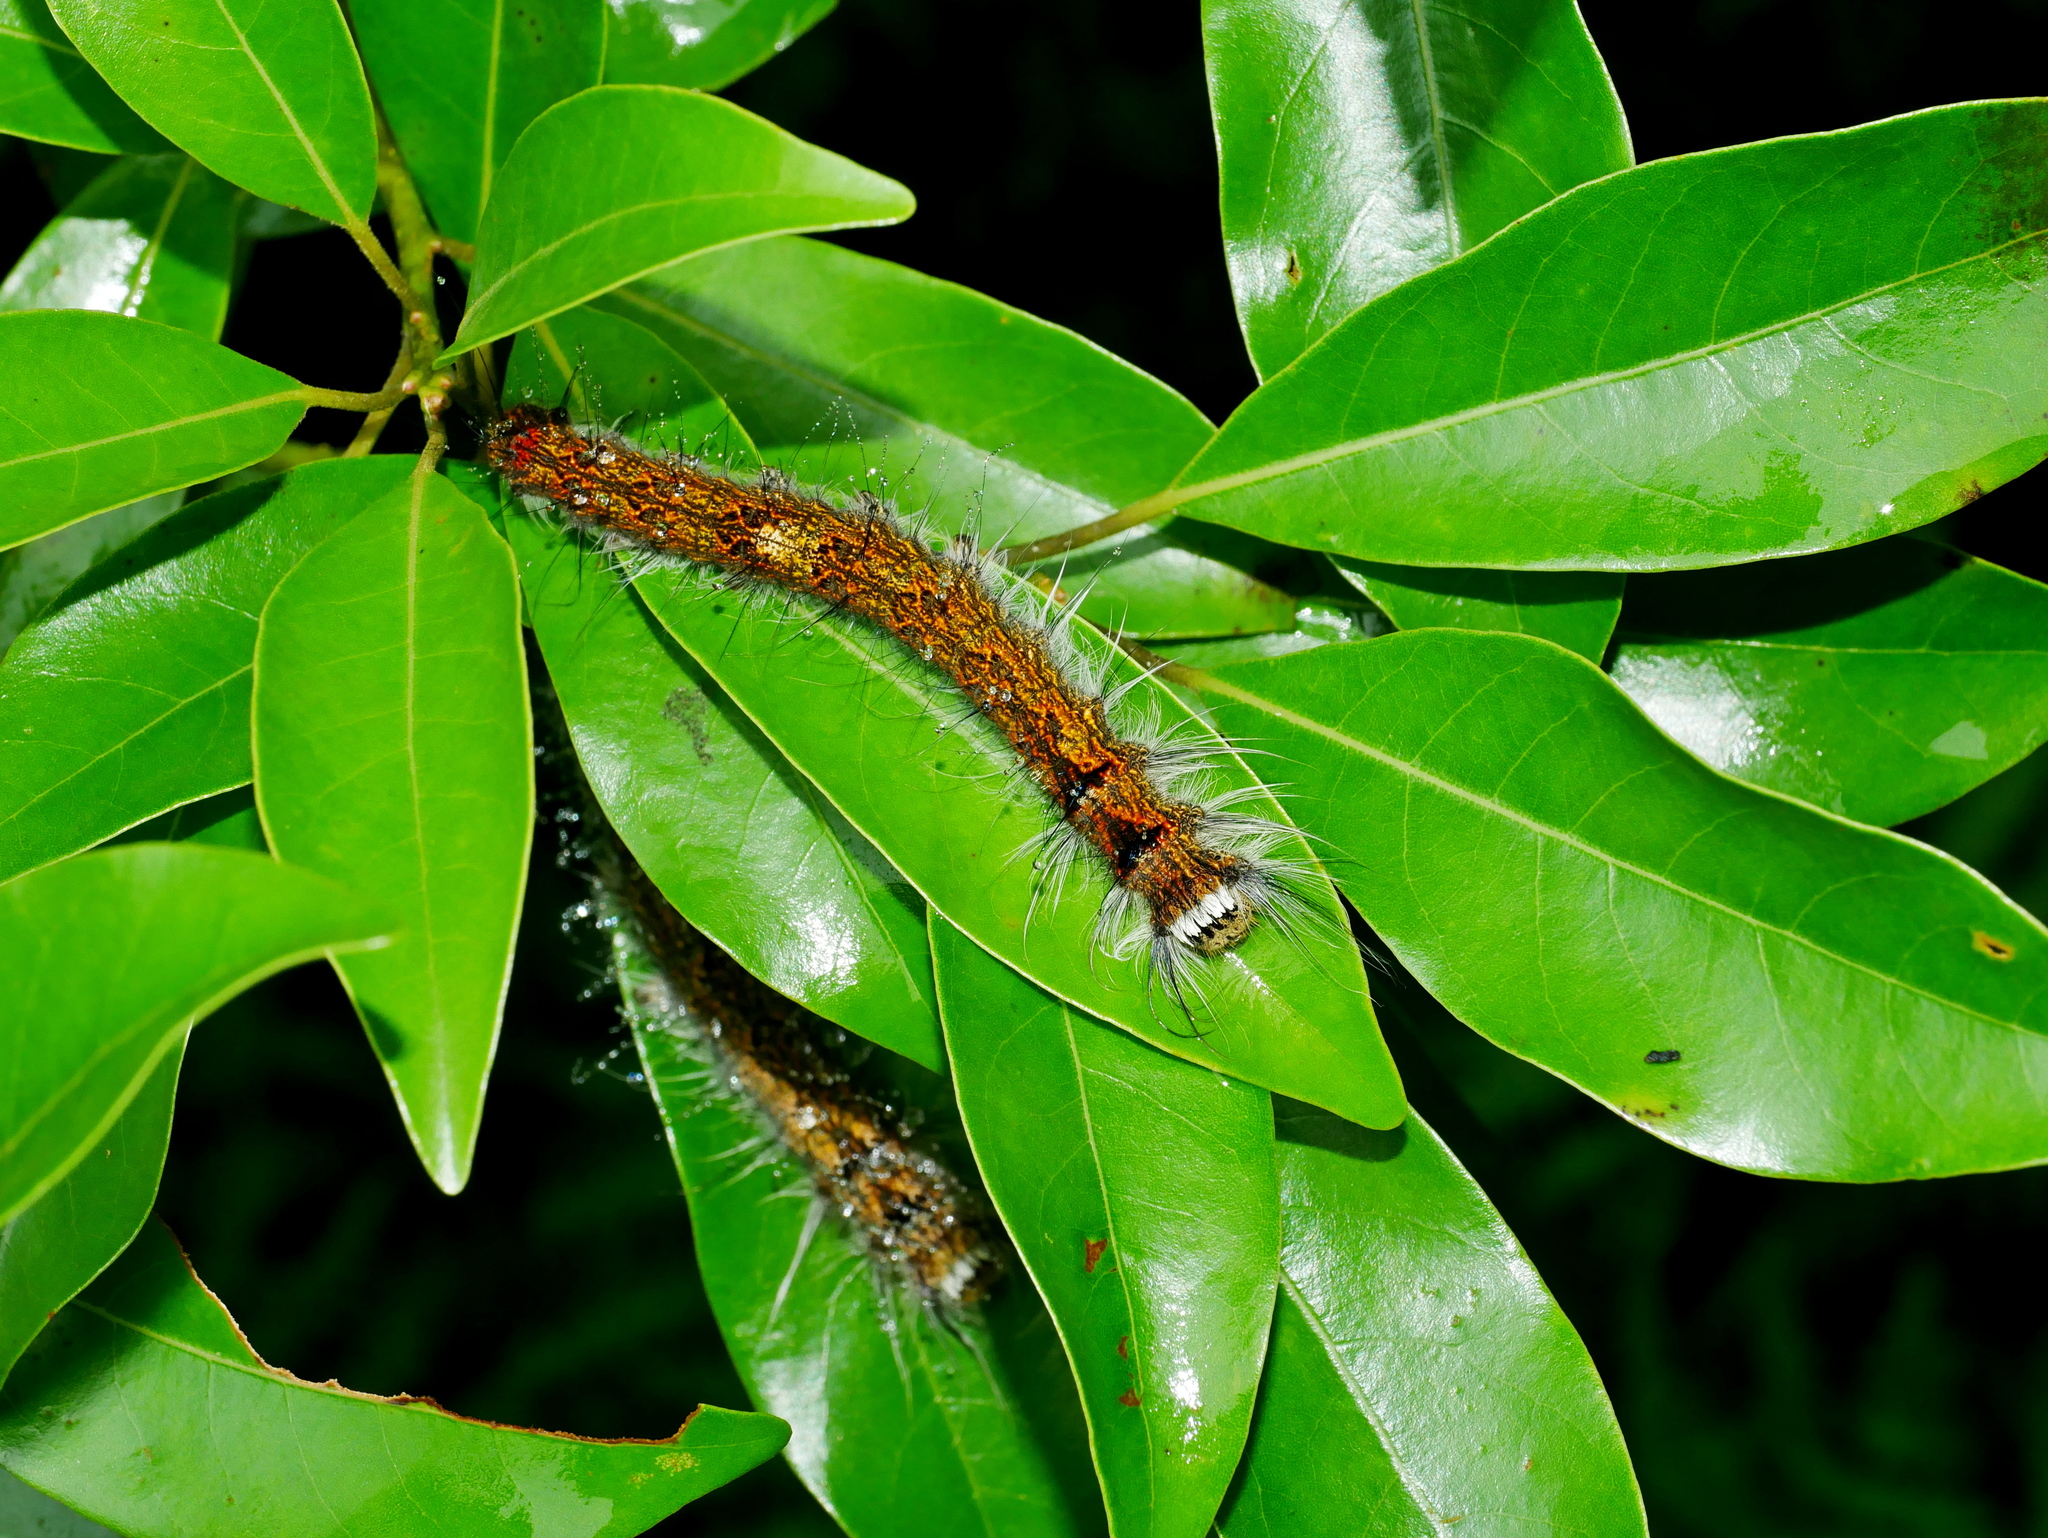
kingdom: Animalia
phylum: Arthropoda
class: Insecta
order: Lepidoptera
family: Lasiocampidae
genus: Odonestis
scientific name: Odonestis bheroba
